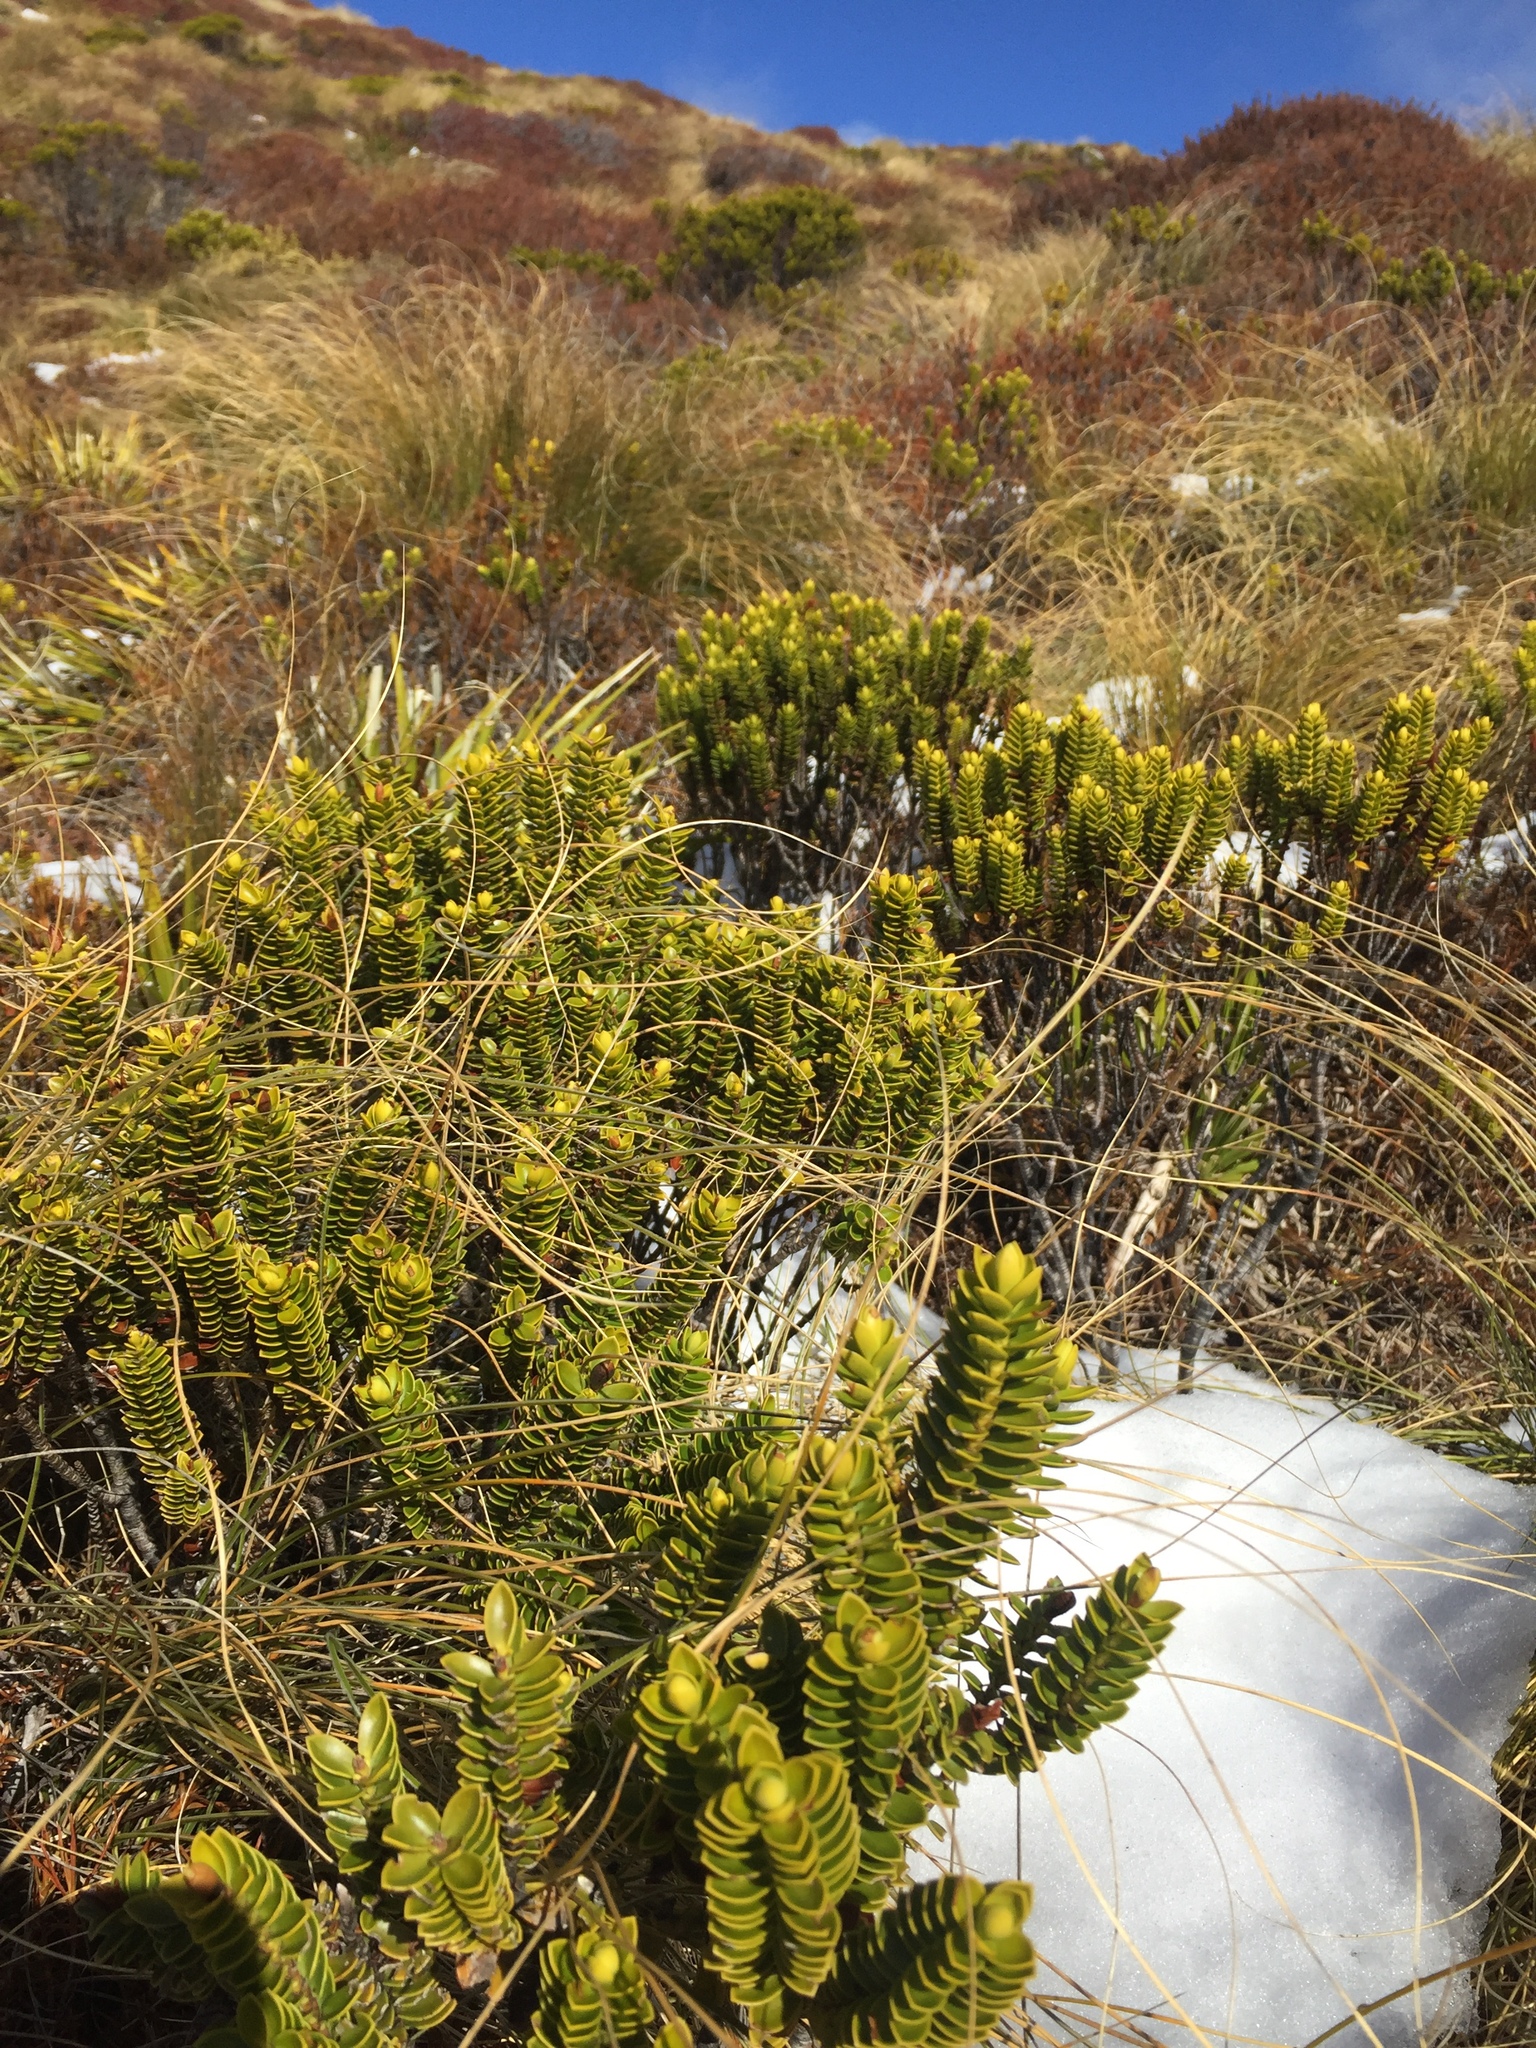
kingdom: Plantae
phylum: Tracheophyta
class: Magnoliopsida
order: Lamiales
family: Plantaginaceae
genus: Veronica
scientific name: Veronica odora
